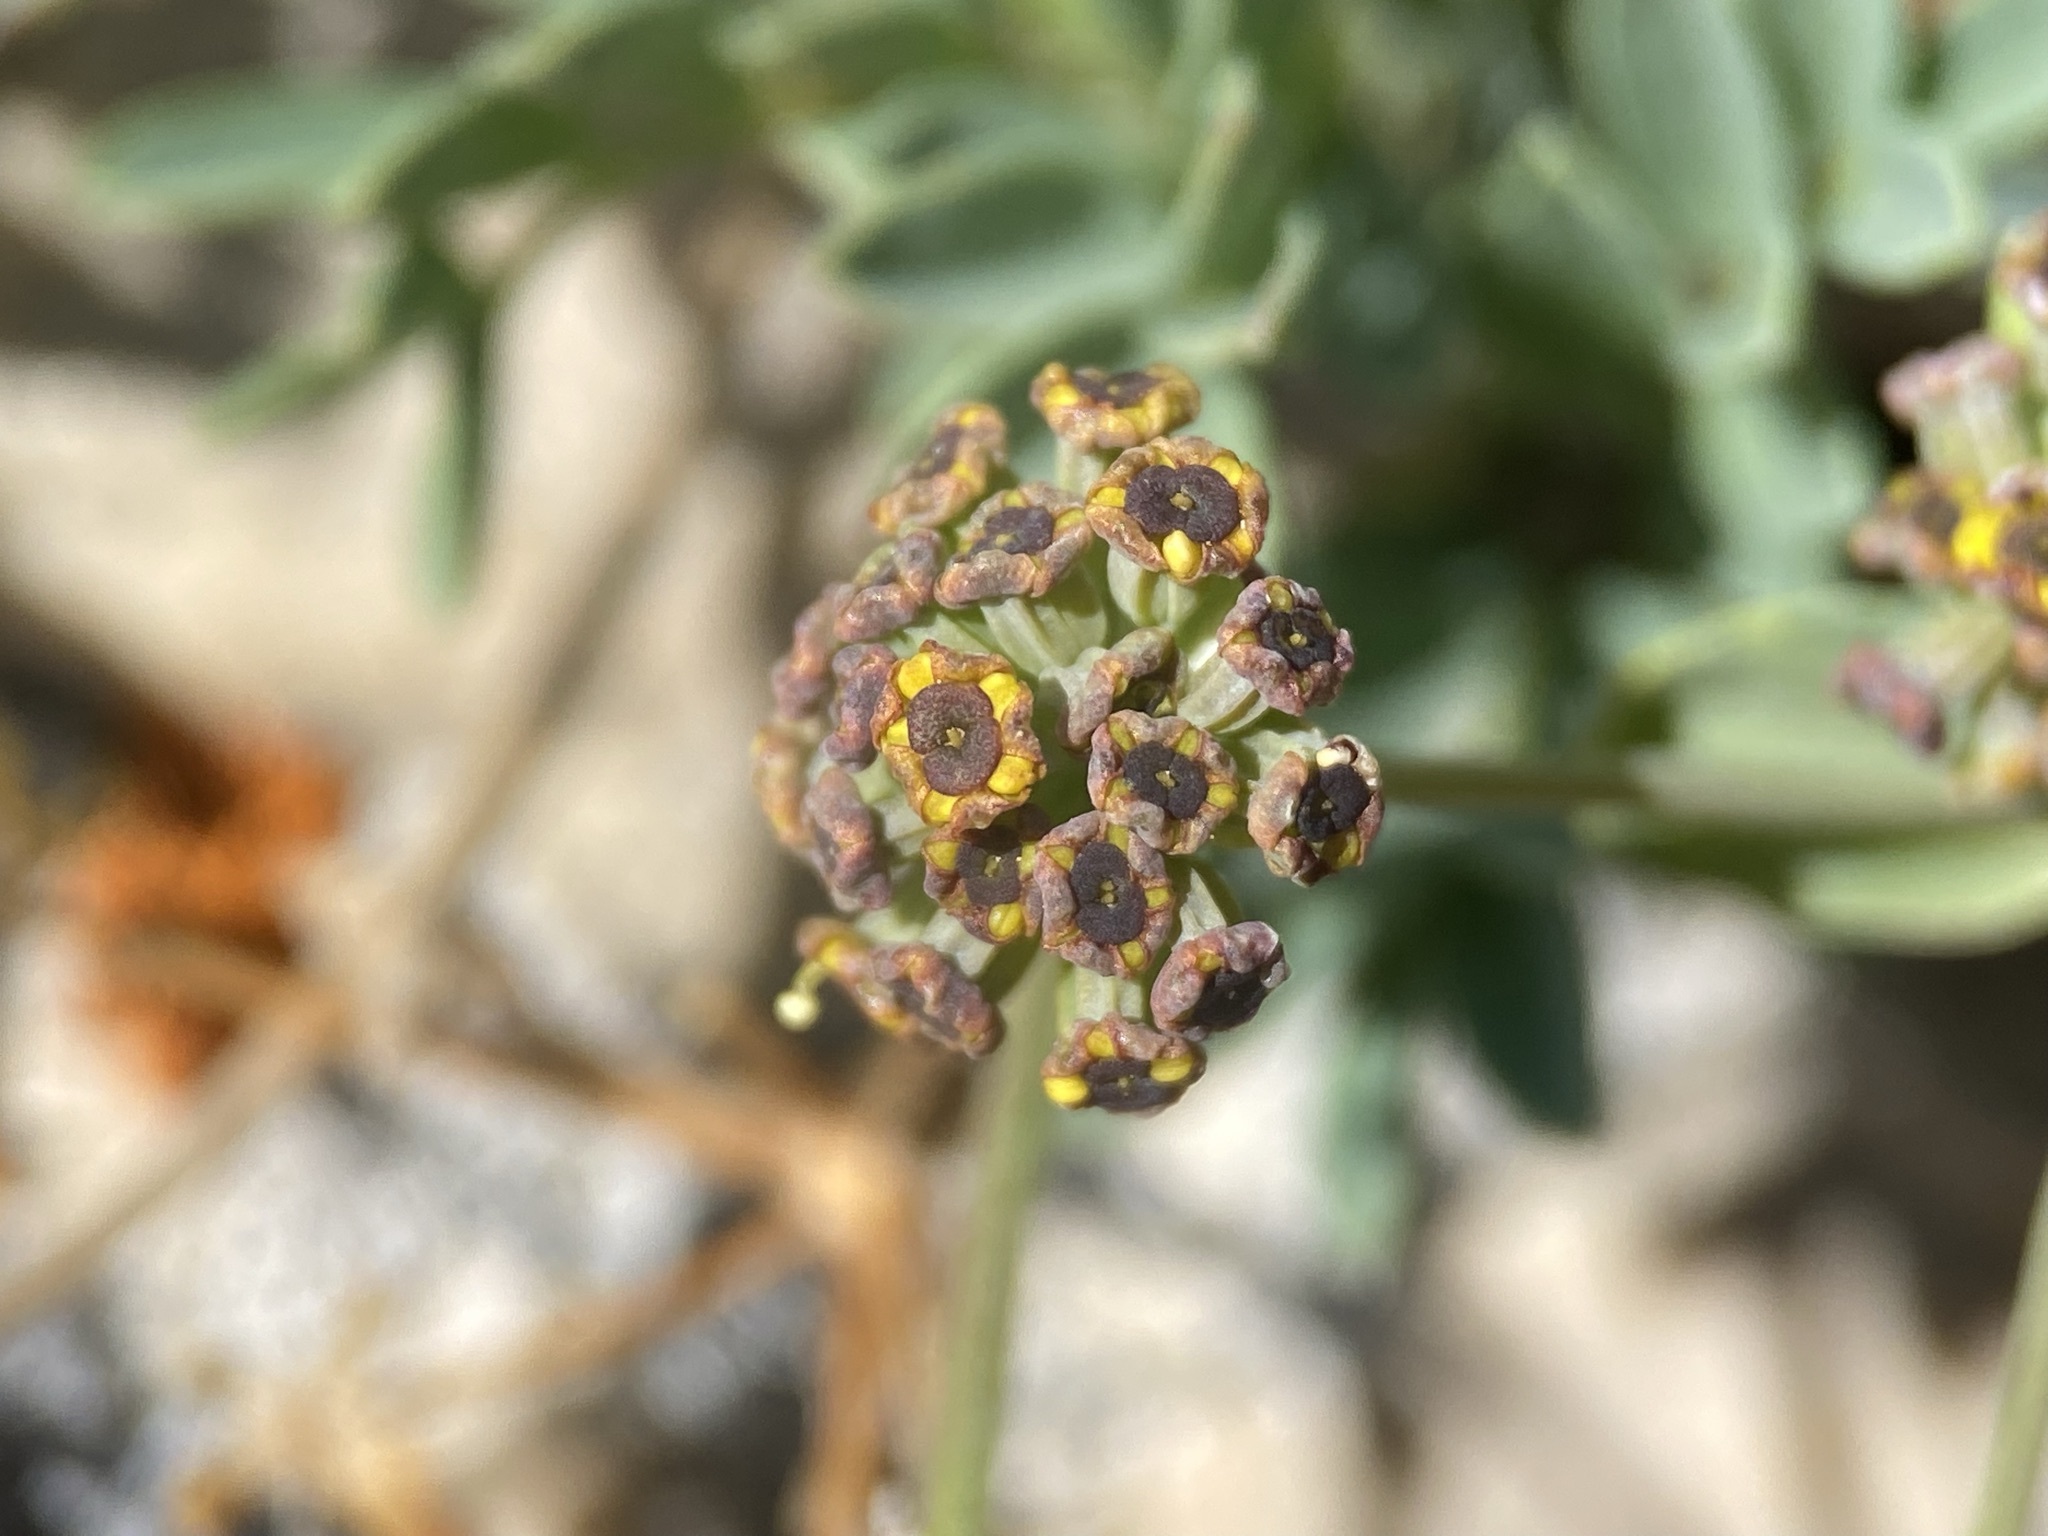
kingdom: Plantae
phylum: Tracheophyta
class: Magnoliopsida
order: Apiales
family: Apiaceae
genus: Bupleurum
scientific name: Bupleurum americanum
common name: American thoroughwax
